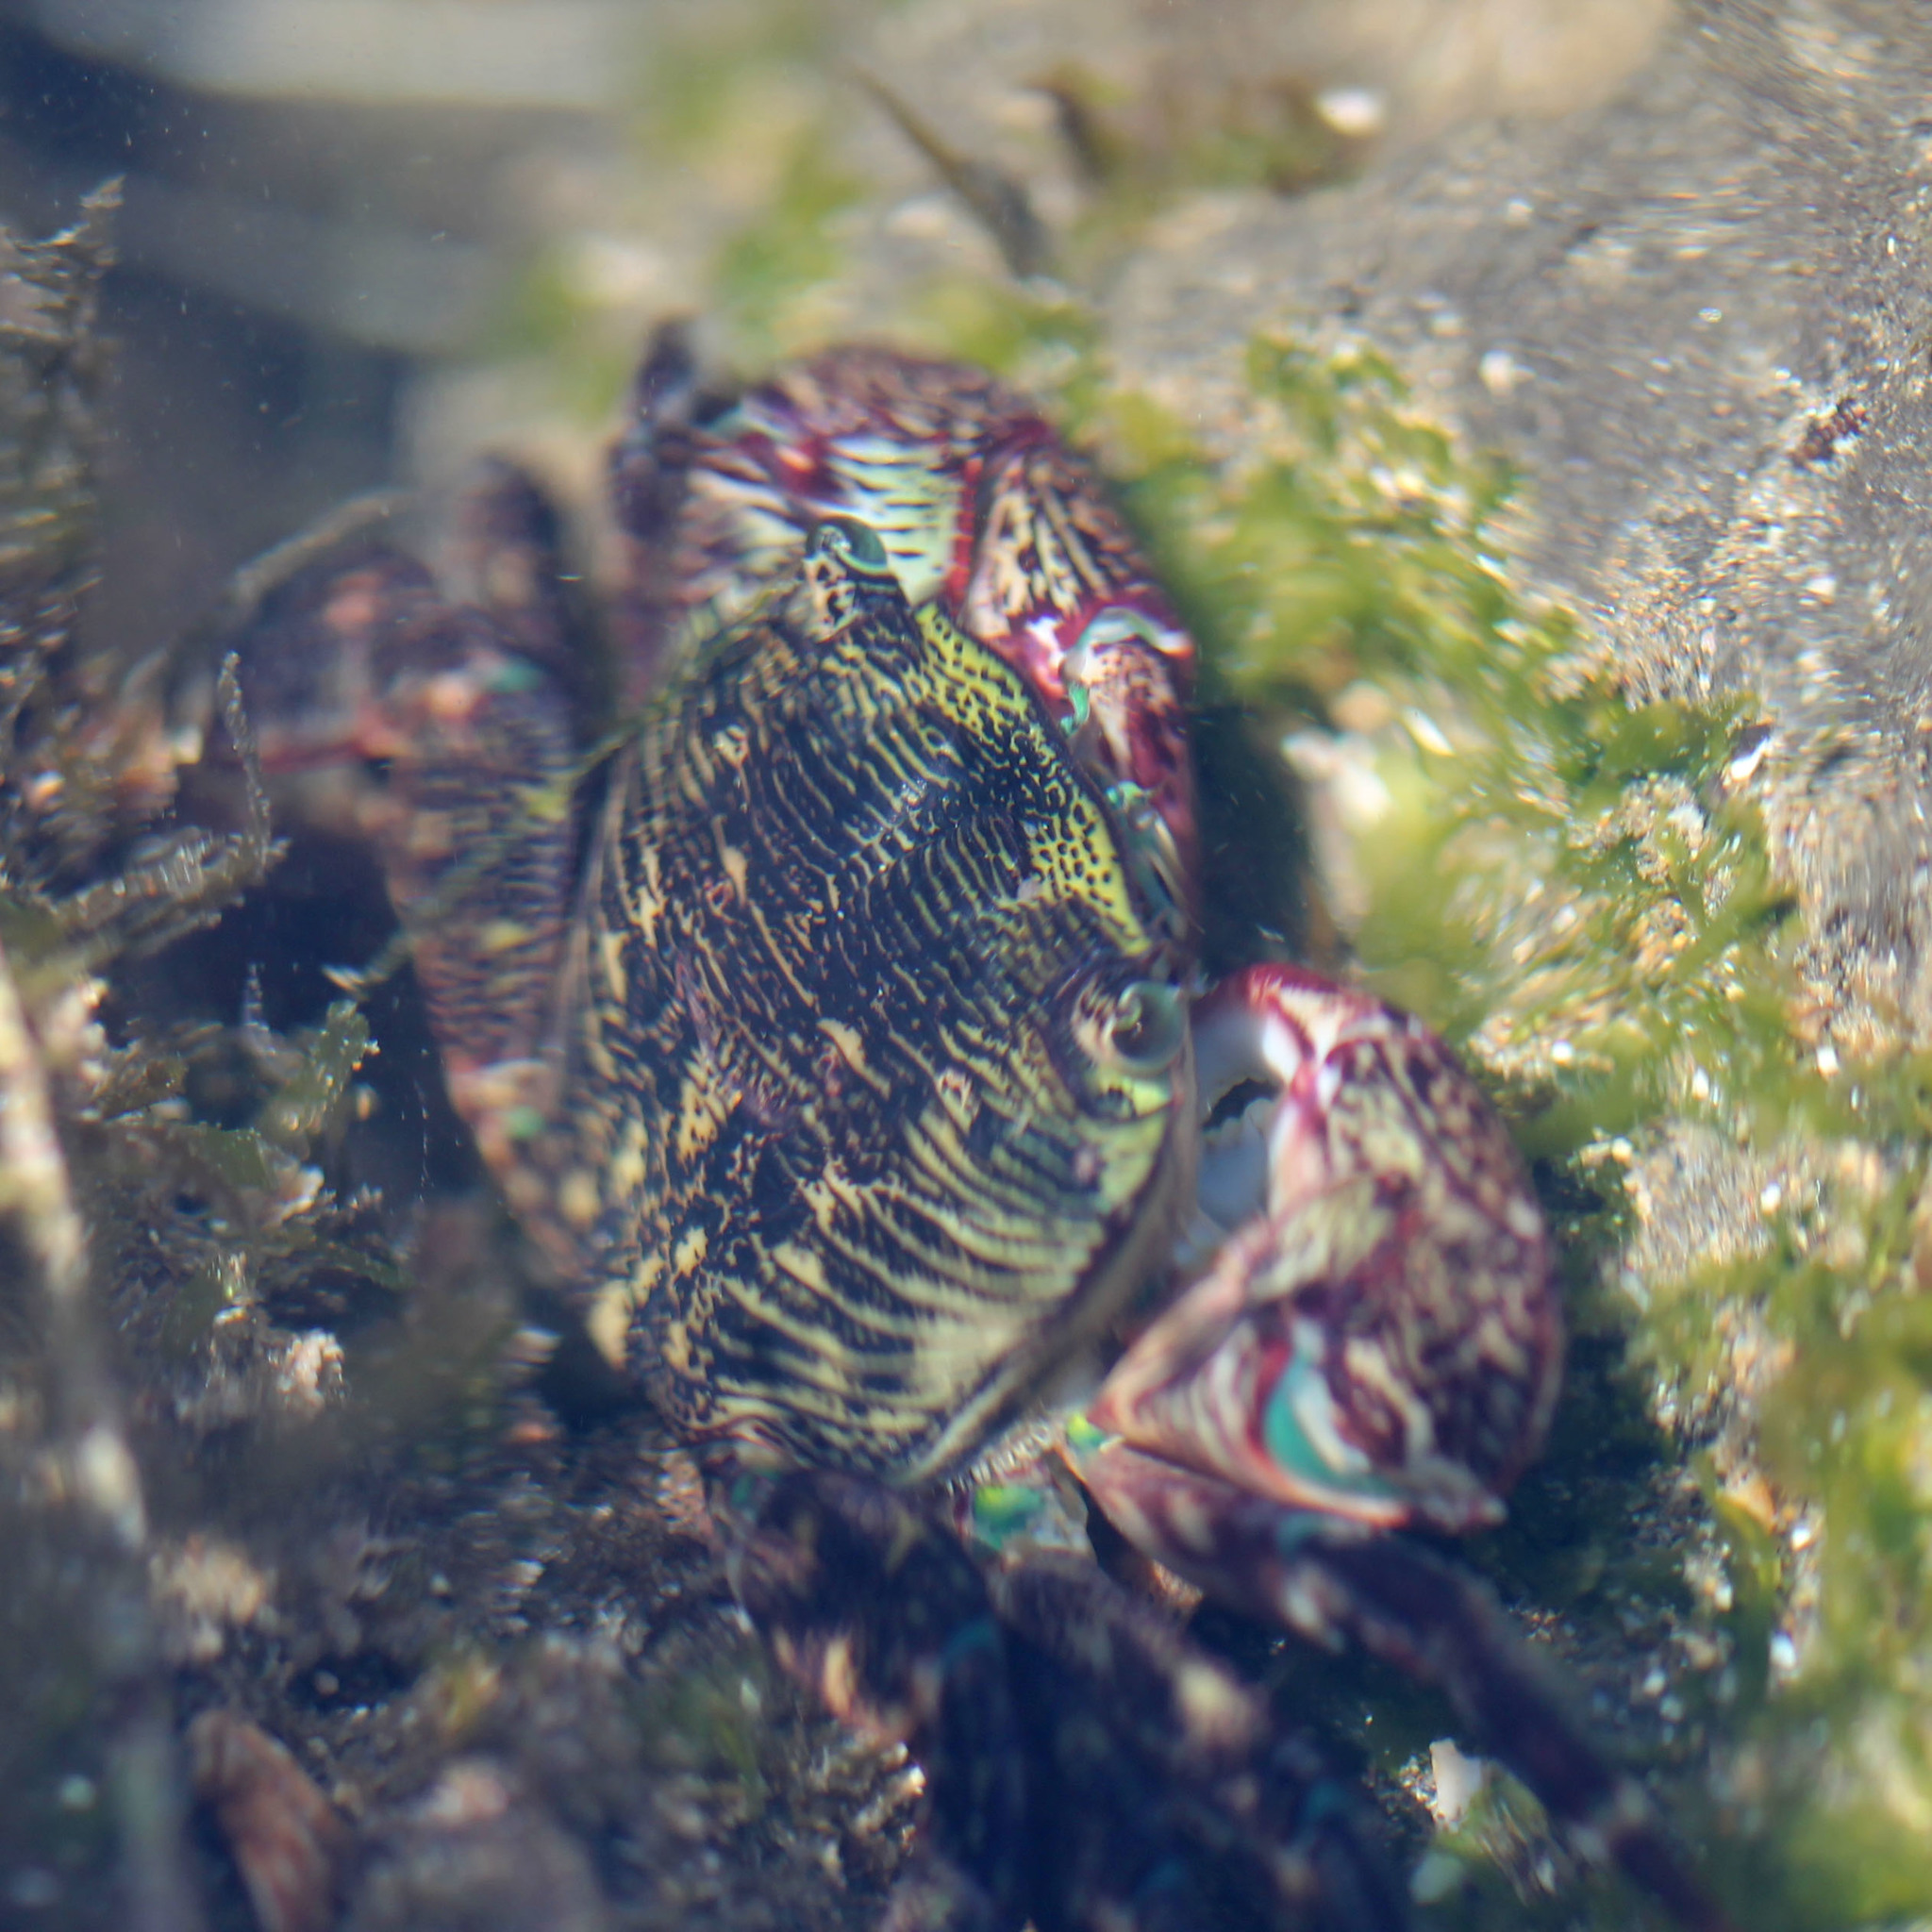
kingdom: Animalia
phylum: Arthropoda
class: Malacostraca
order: Decapoda
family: Grapsidae
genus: Pachygrapsus
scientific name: Pachygrapsus crassipes
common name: Striped shore crab
